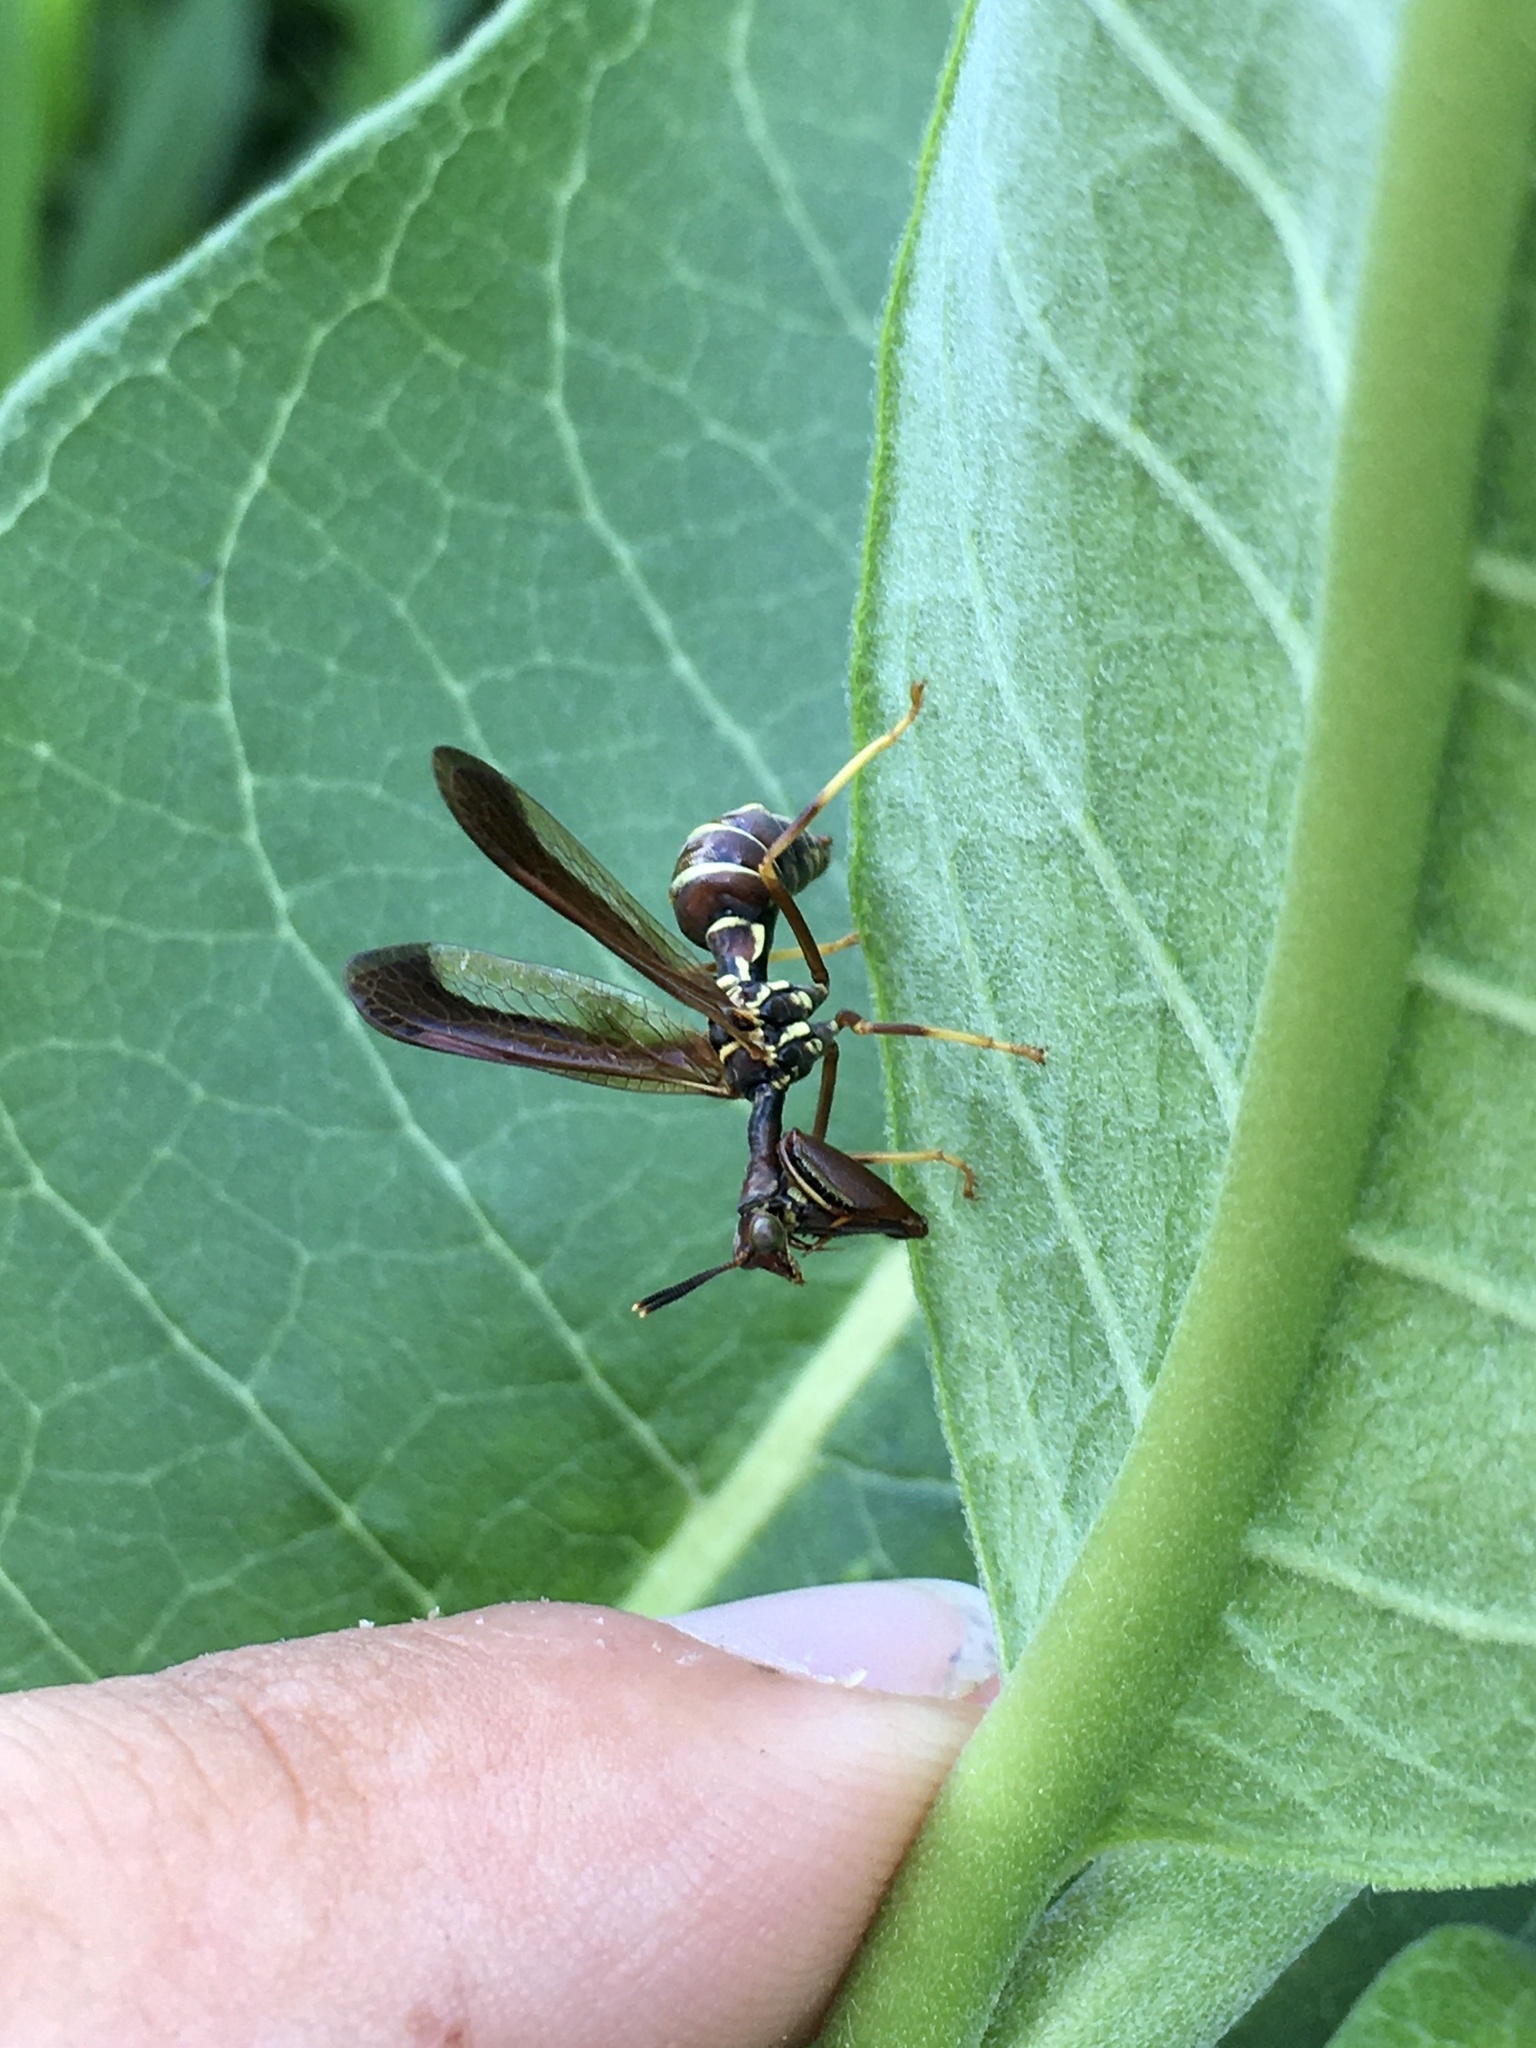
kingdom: Animalia
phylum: Arthropoda
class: Insecta
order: Neuroptera
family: Mantispidae
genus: Climaciella
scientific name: Climaciella brunnea
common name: Brown wasp mantidfly
